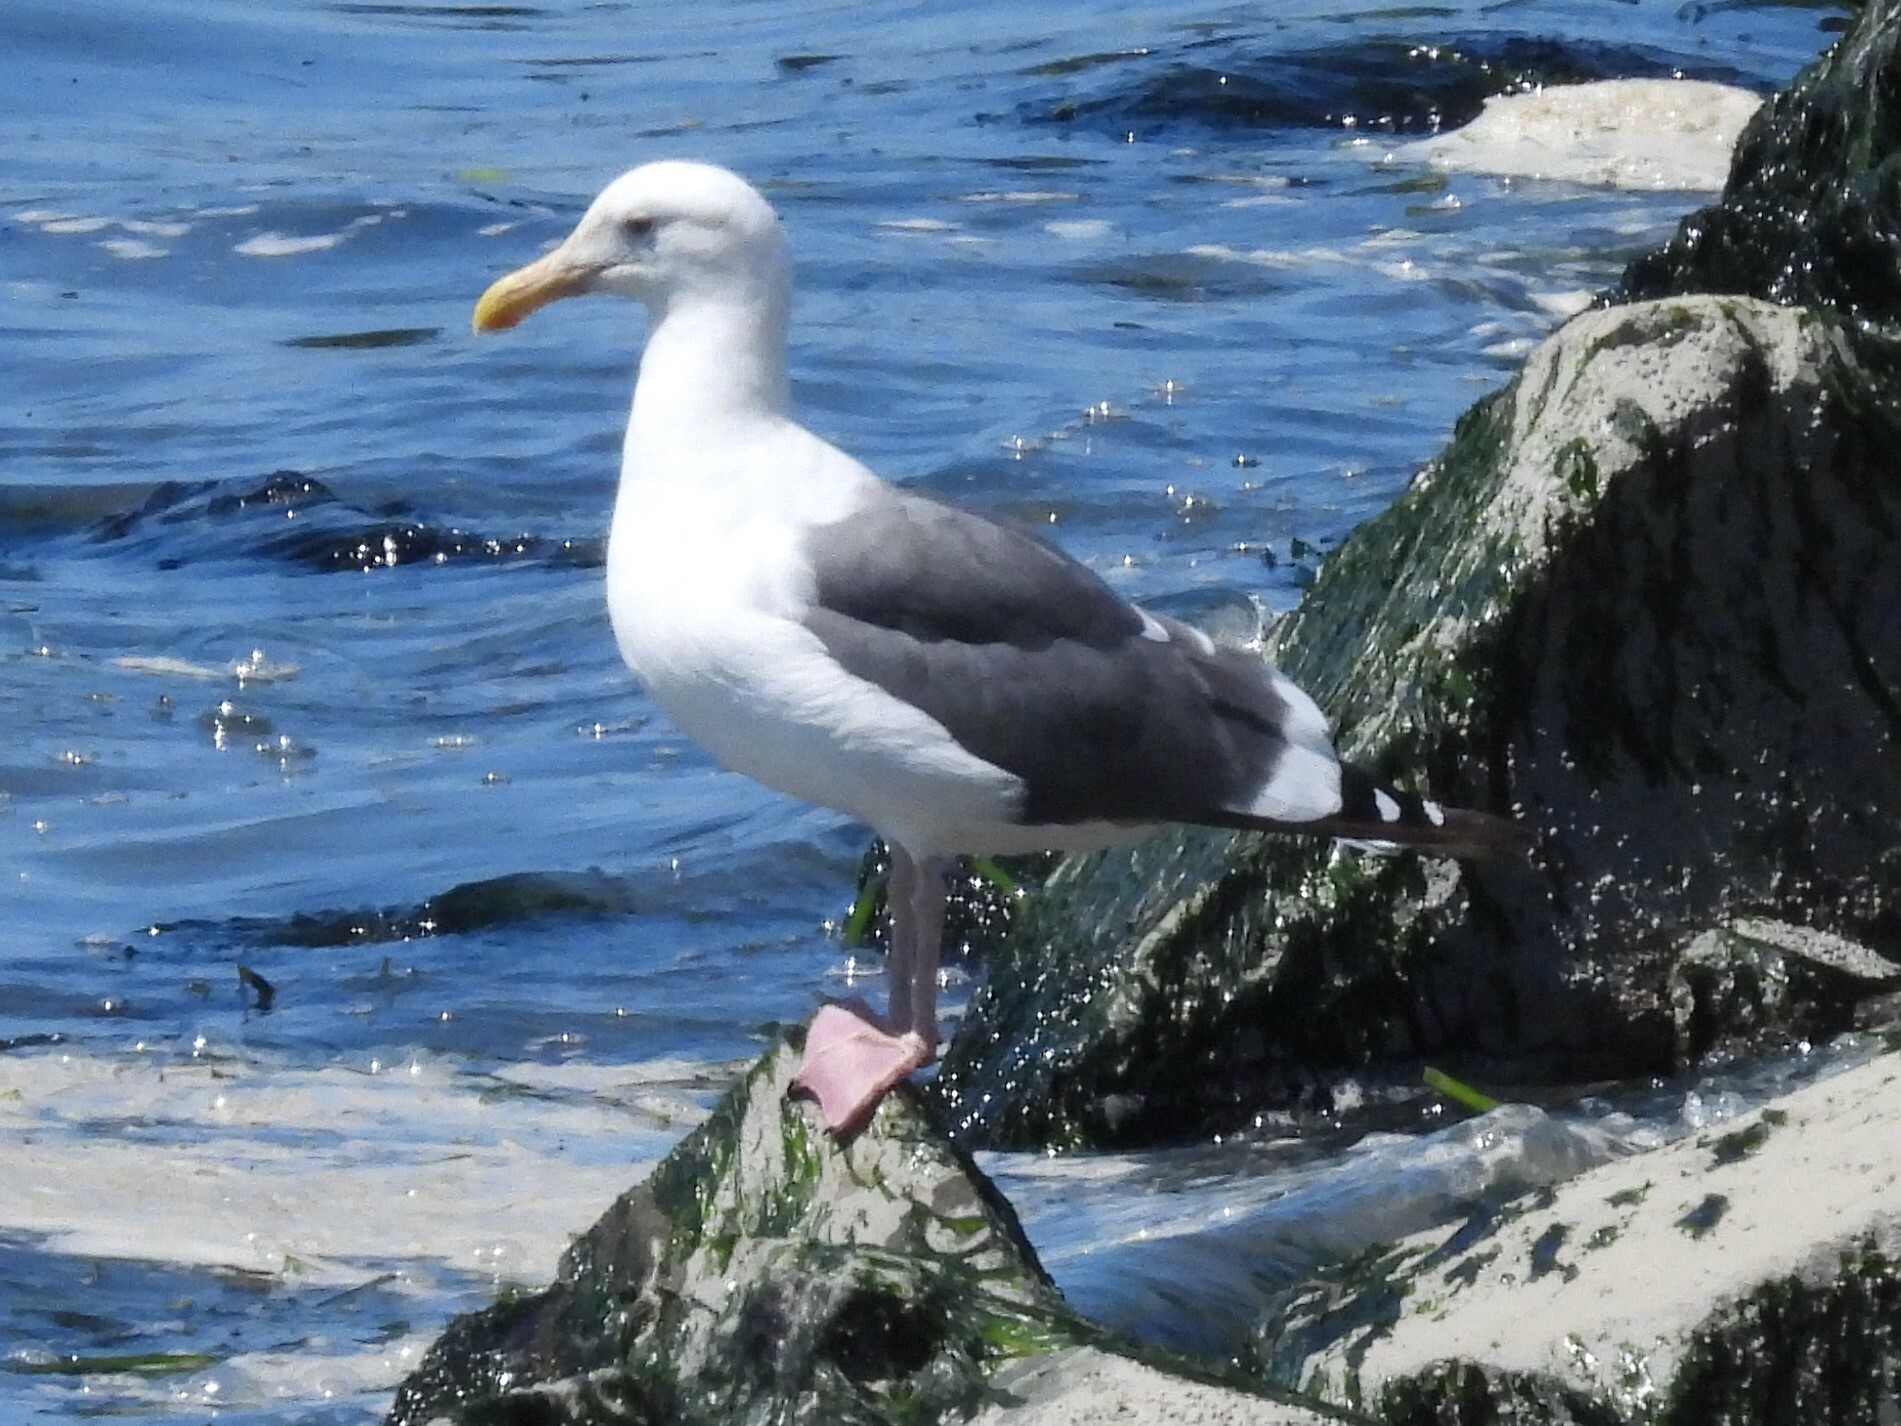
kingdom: Animalia
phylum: Chordata
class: Aves
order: Charadriiformes
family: Laridae
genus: Larus
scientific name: Larus occidentalis
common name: Western gull
